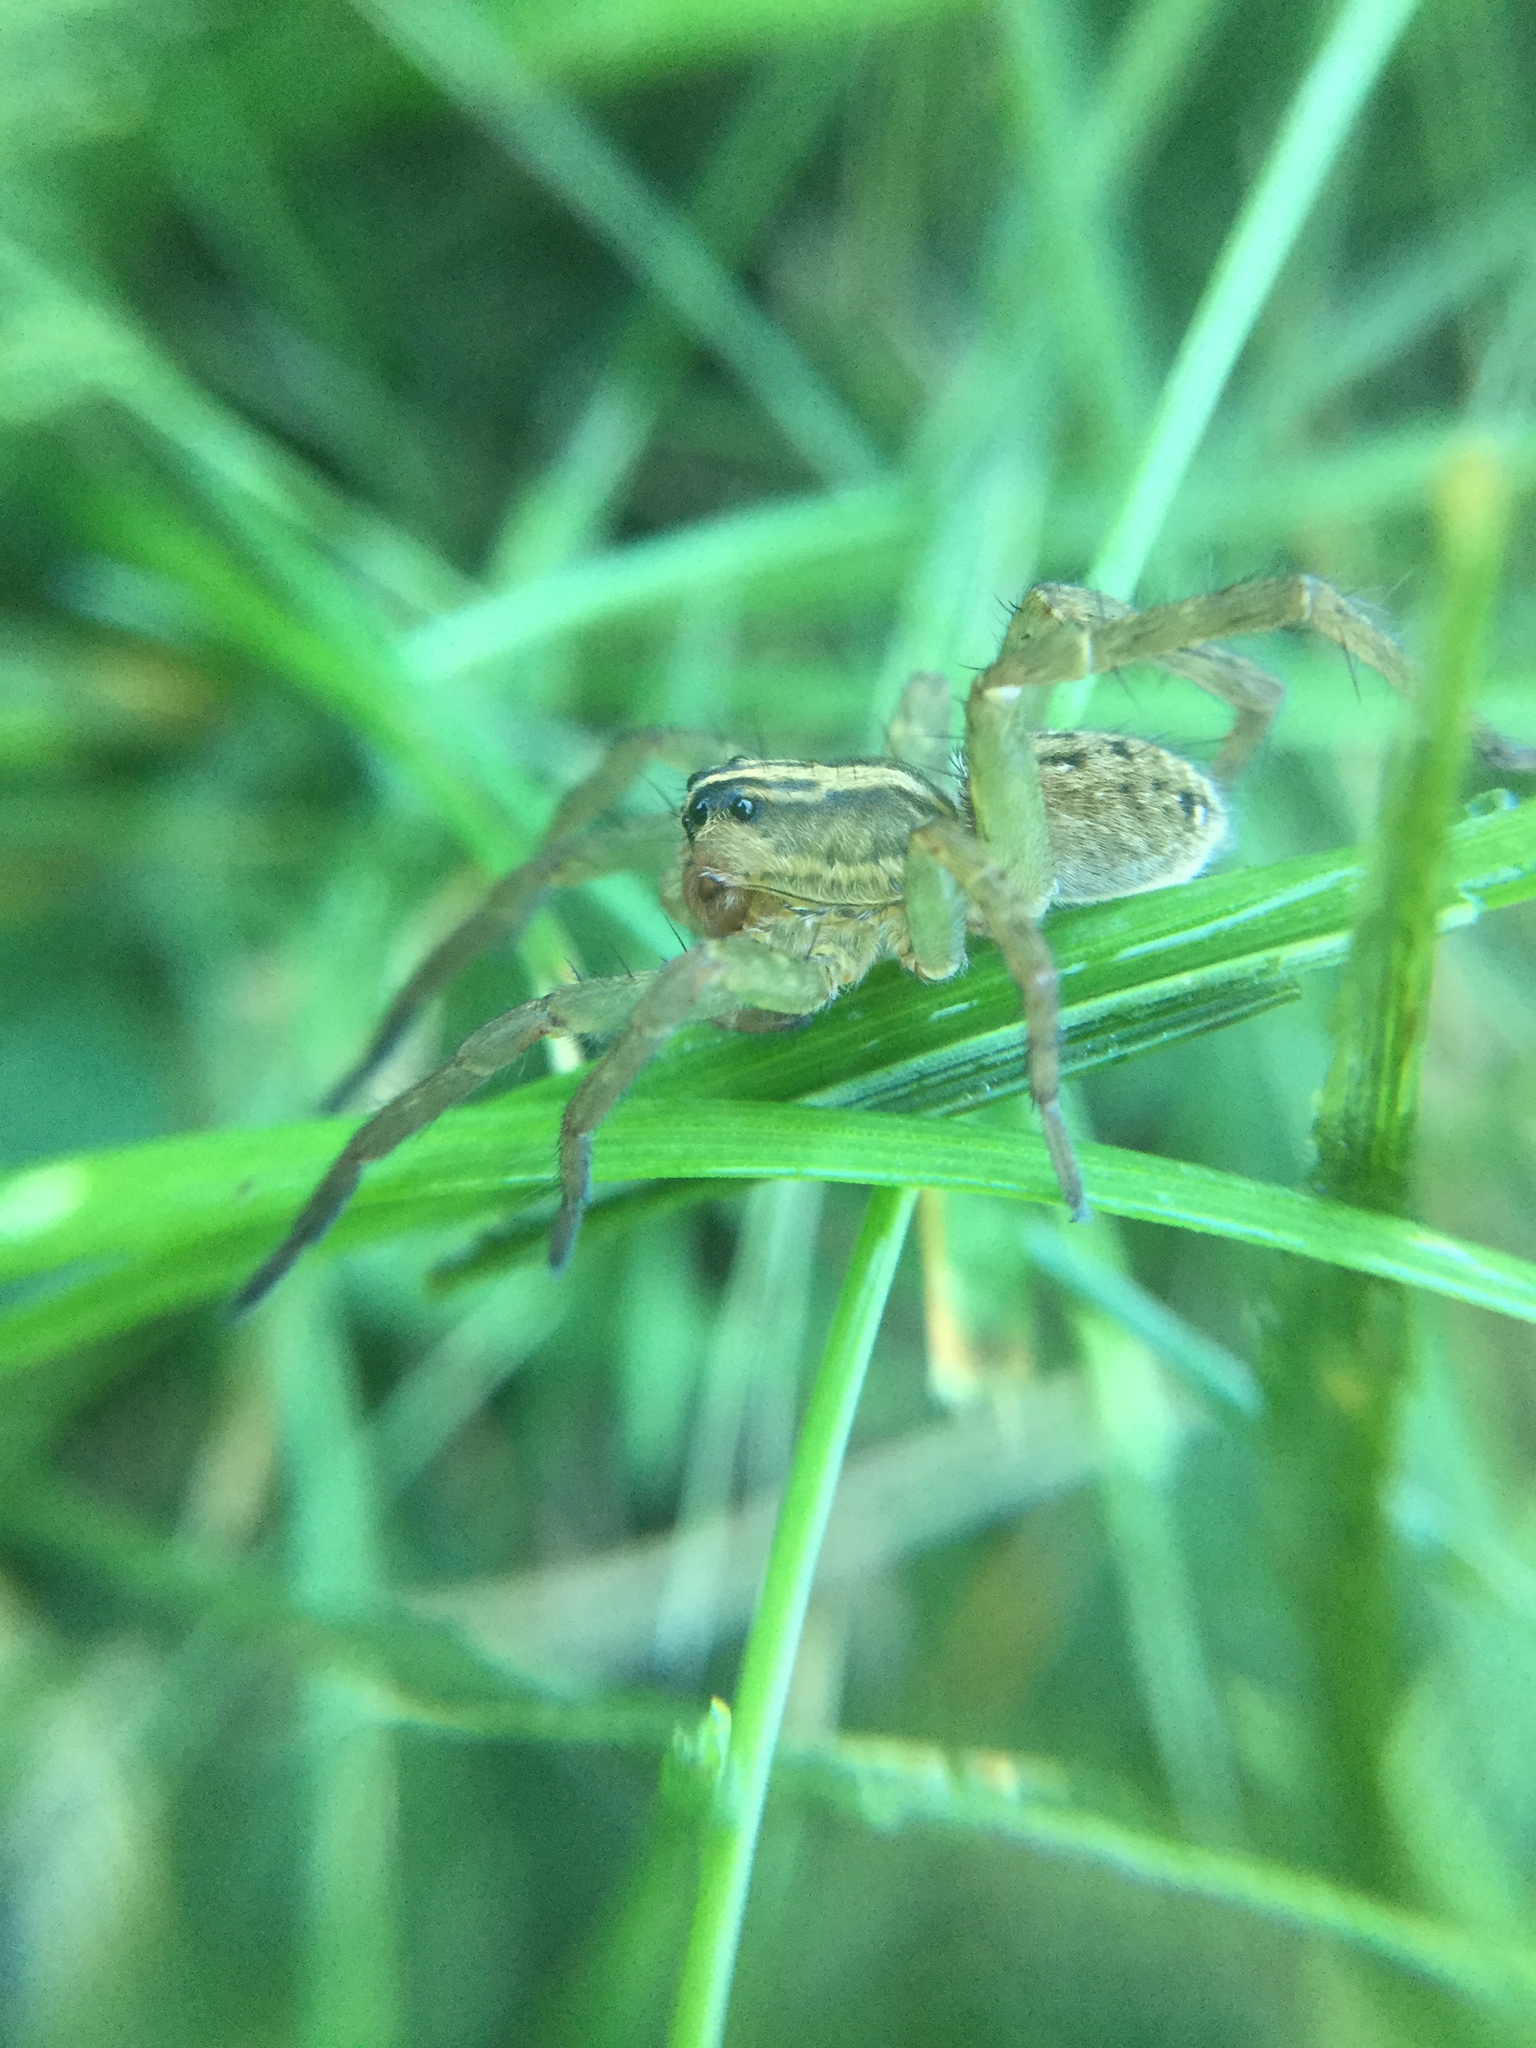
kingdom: Animalia
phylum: Arthropoda
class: Arachnida
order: Araneae
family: Lycosidae
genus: Tigrosa
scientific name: Tigrosa helluo
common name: Wetland giant wolf spider
